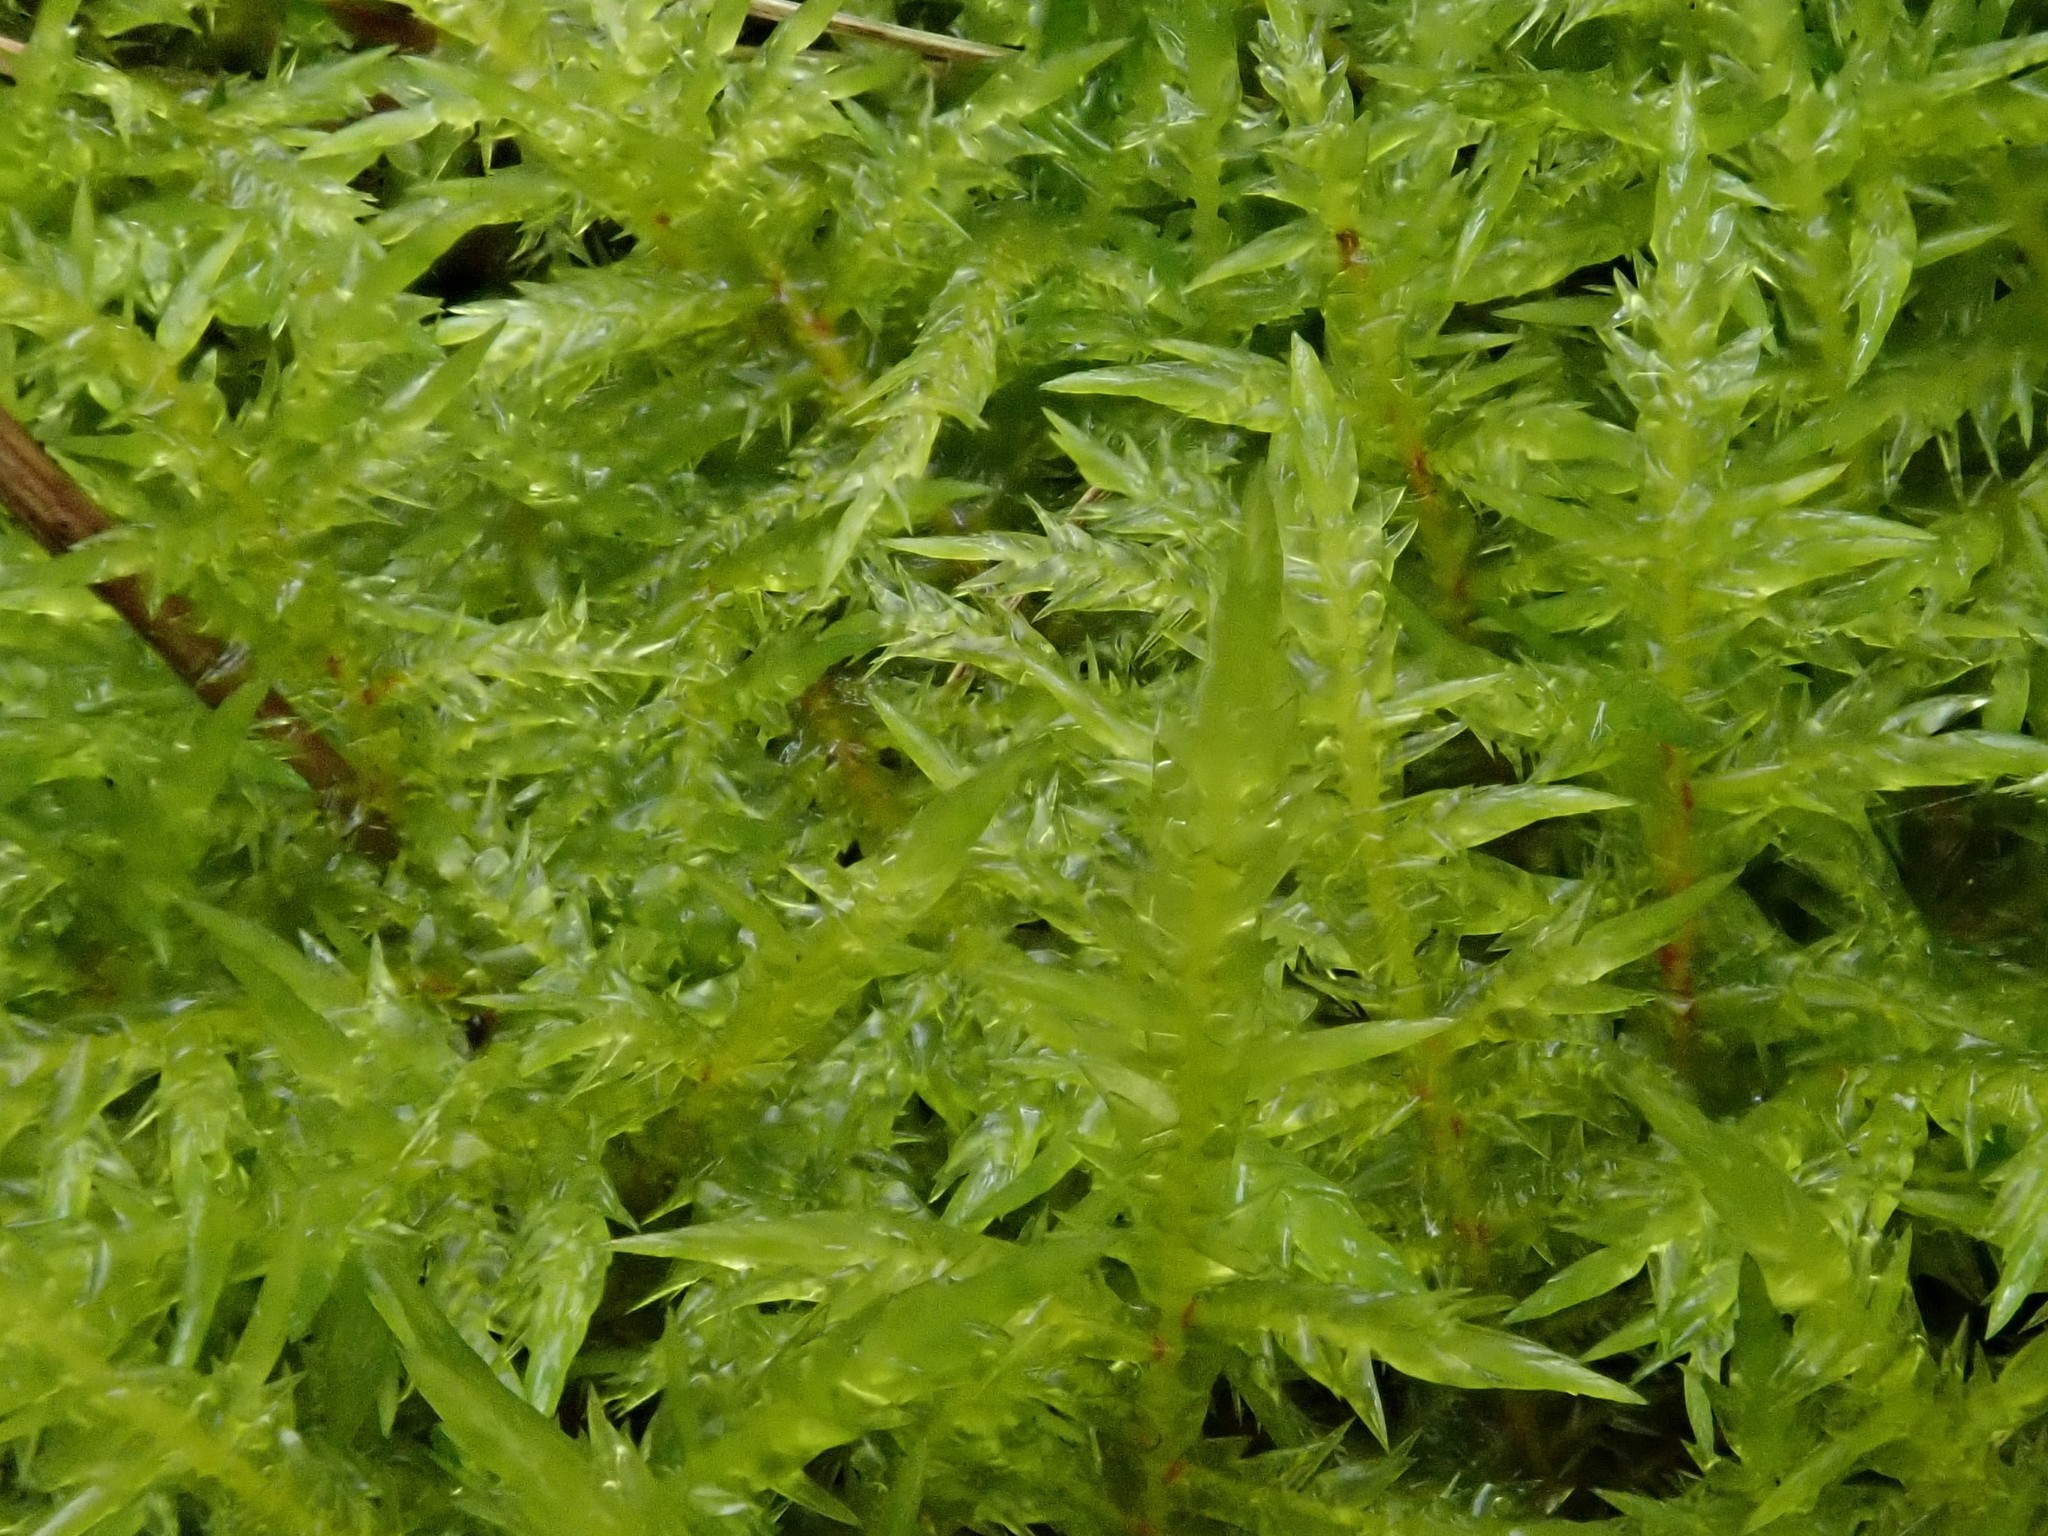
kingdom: Plantae
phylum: Bryophyta
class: Bryopsida
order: Hypnales
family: Pylaisiaceae
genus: Calliergonella
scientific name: Calliergonella cuspidata
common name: Common large wetland moss
